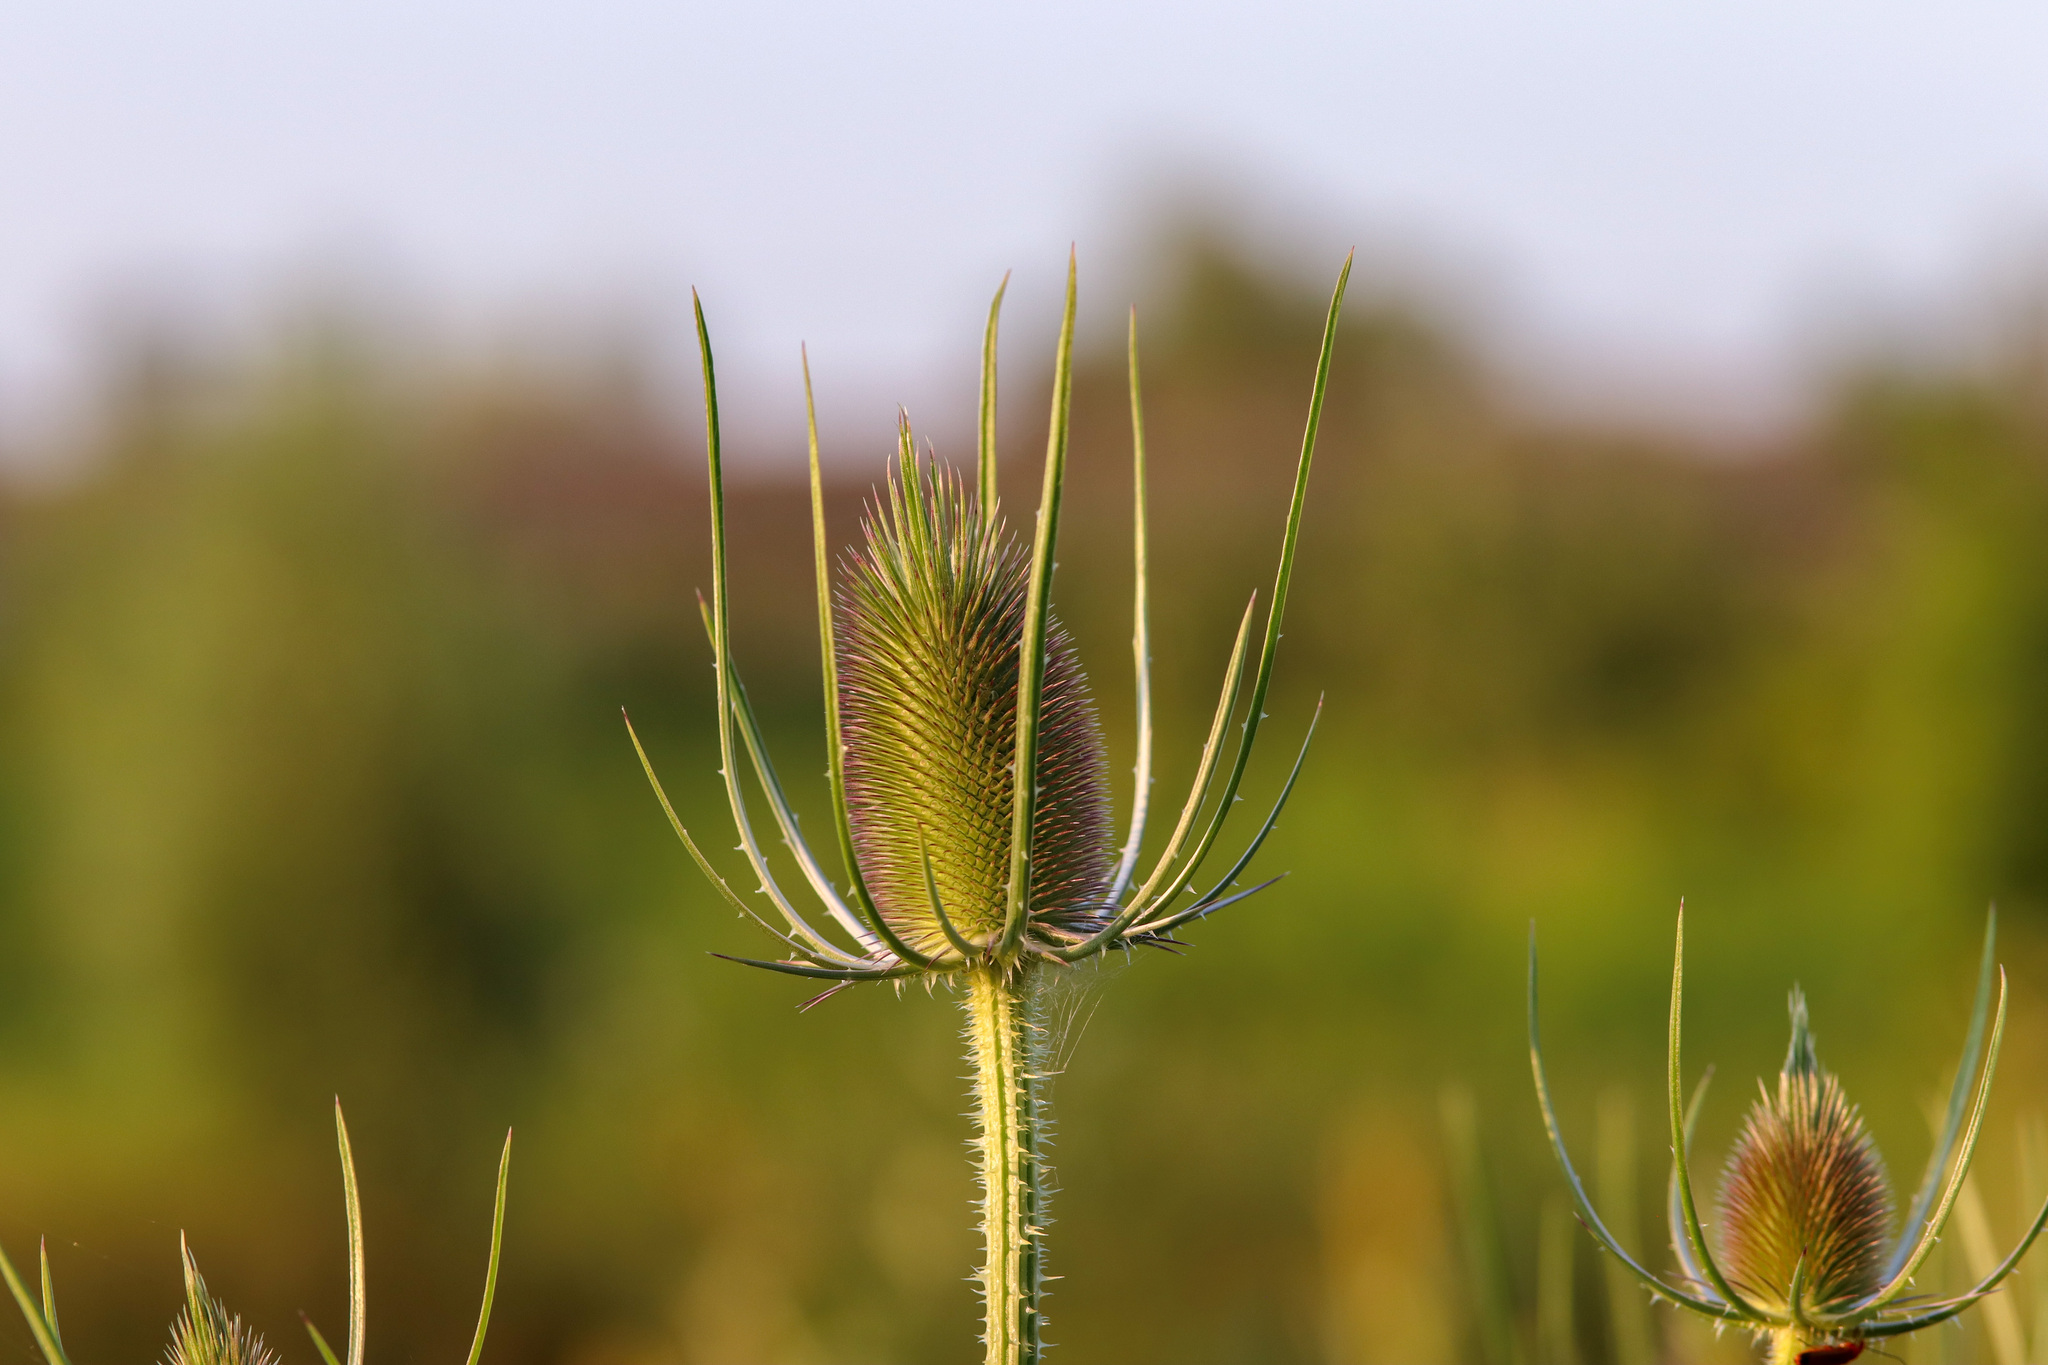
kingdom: Plantae
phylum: Tracheophyta
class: Magnoliopsida
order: Dipsacales
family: Caprifoliaceae
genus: Dipsacus
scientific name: Dipsacus fullonum
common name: Teasel
